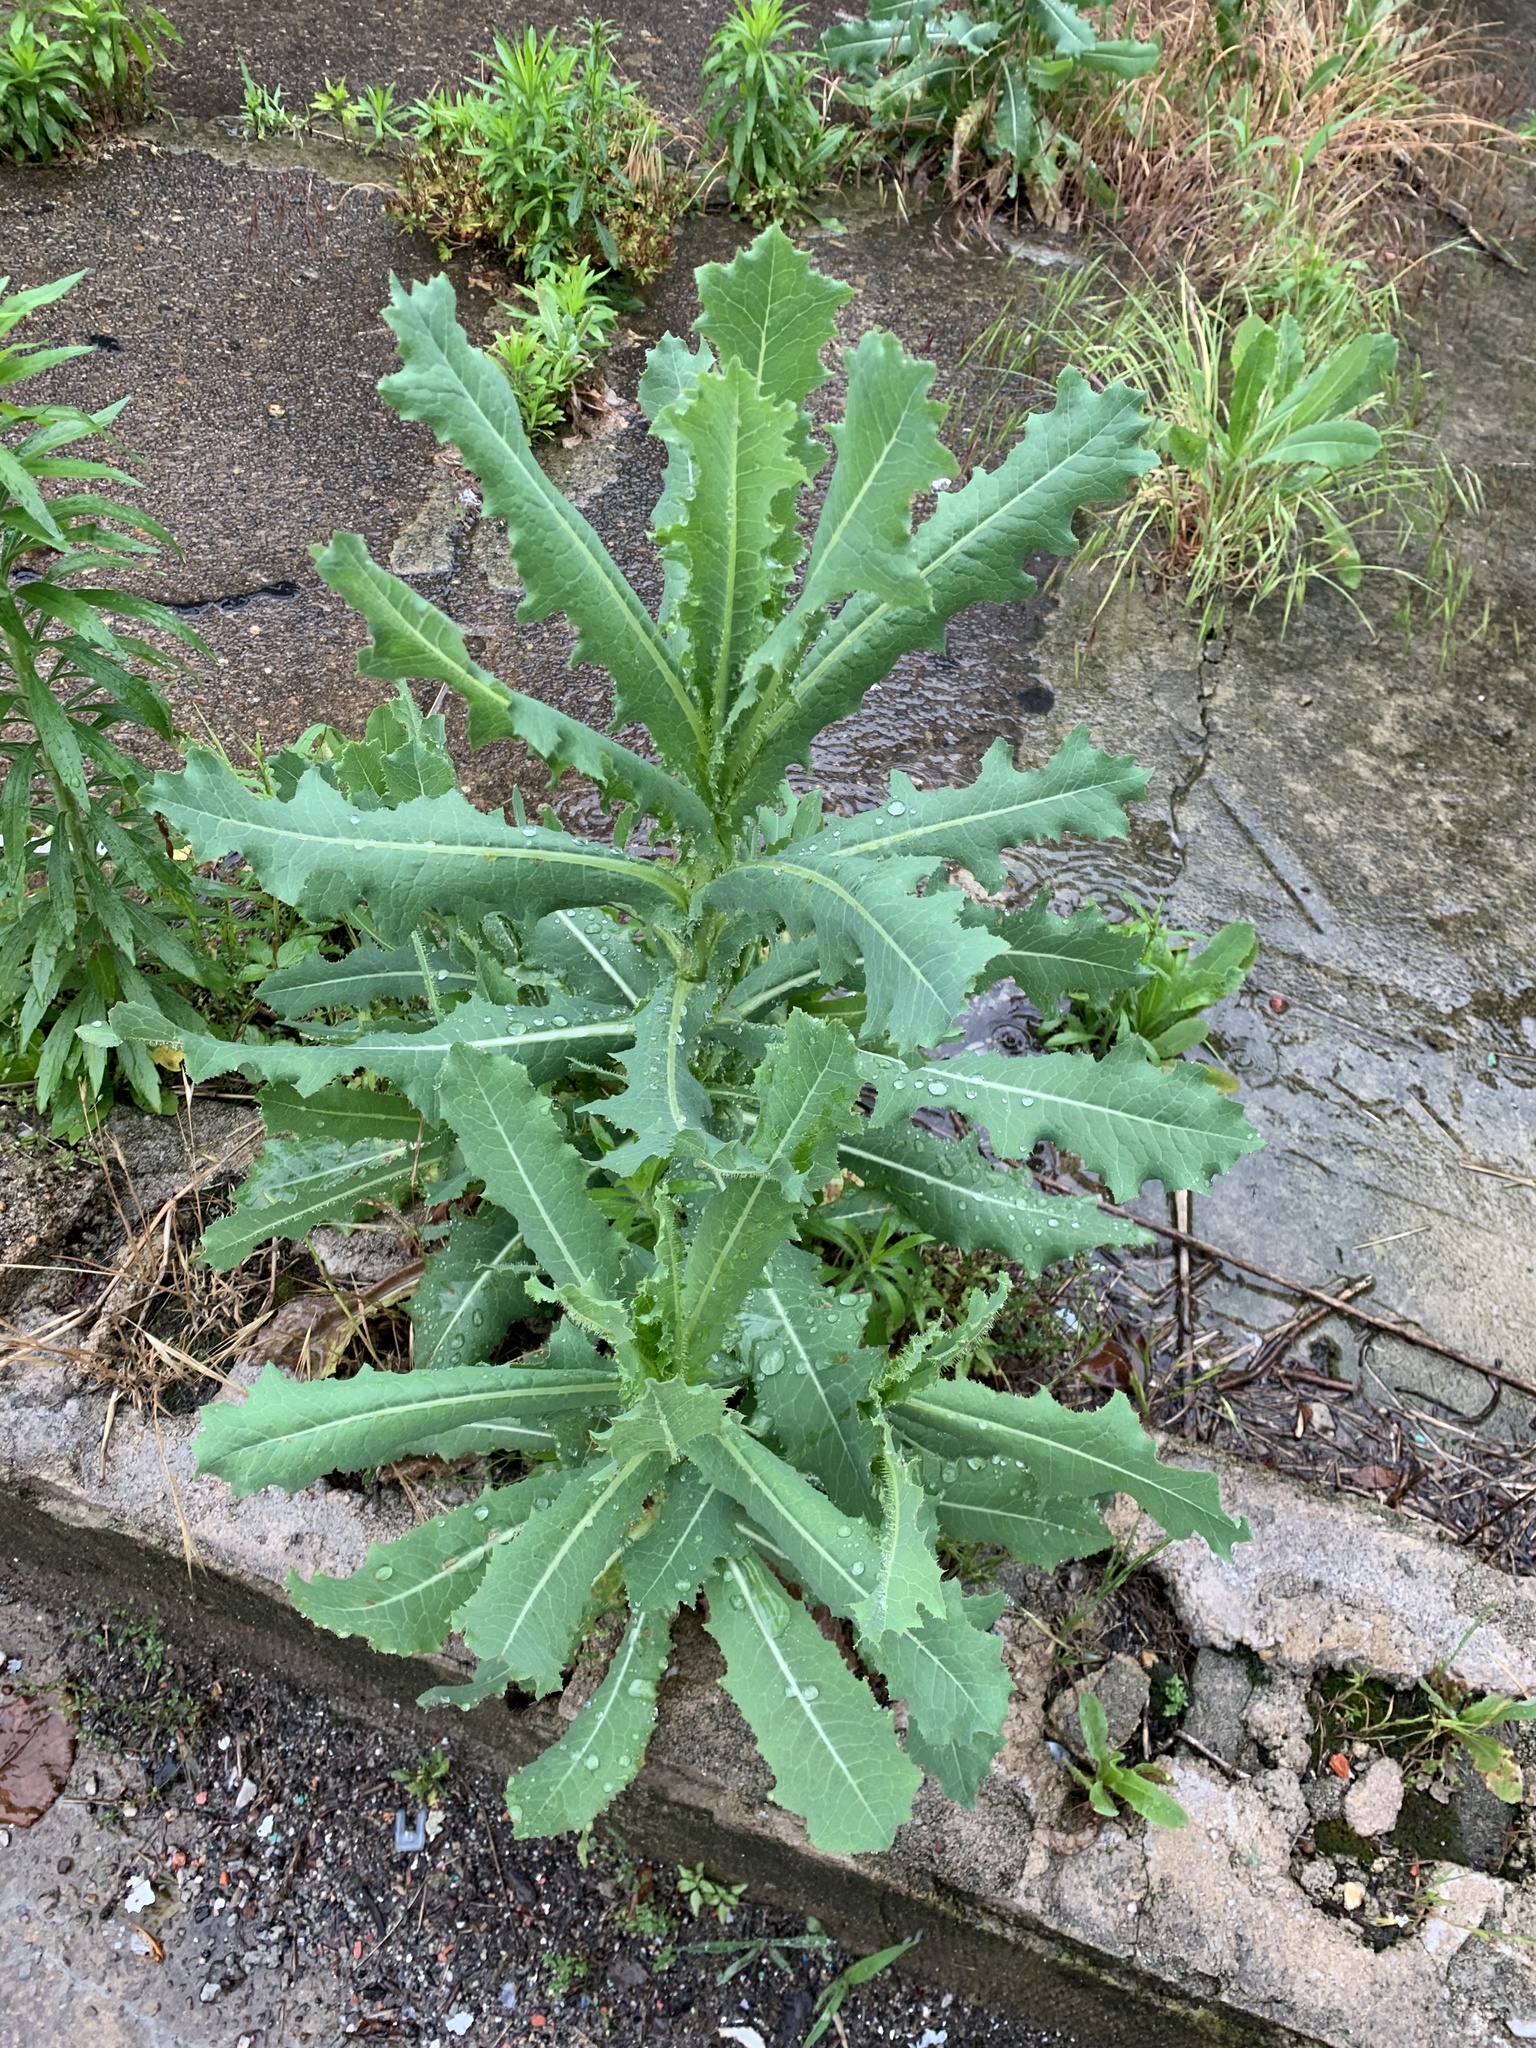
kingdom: Plantae
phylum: Tracheophyta
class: Magnoliopsida
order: Asterales
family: Asteraceae
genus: Lactuca
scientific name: Lactuca serriola
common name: Prickly lettuce
